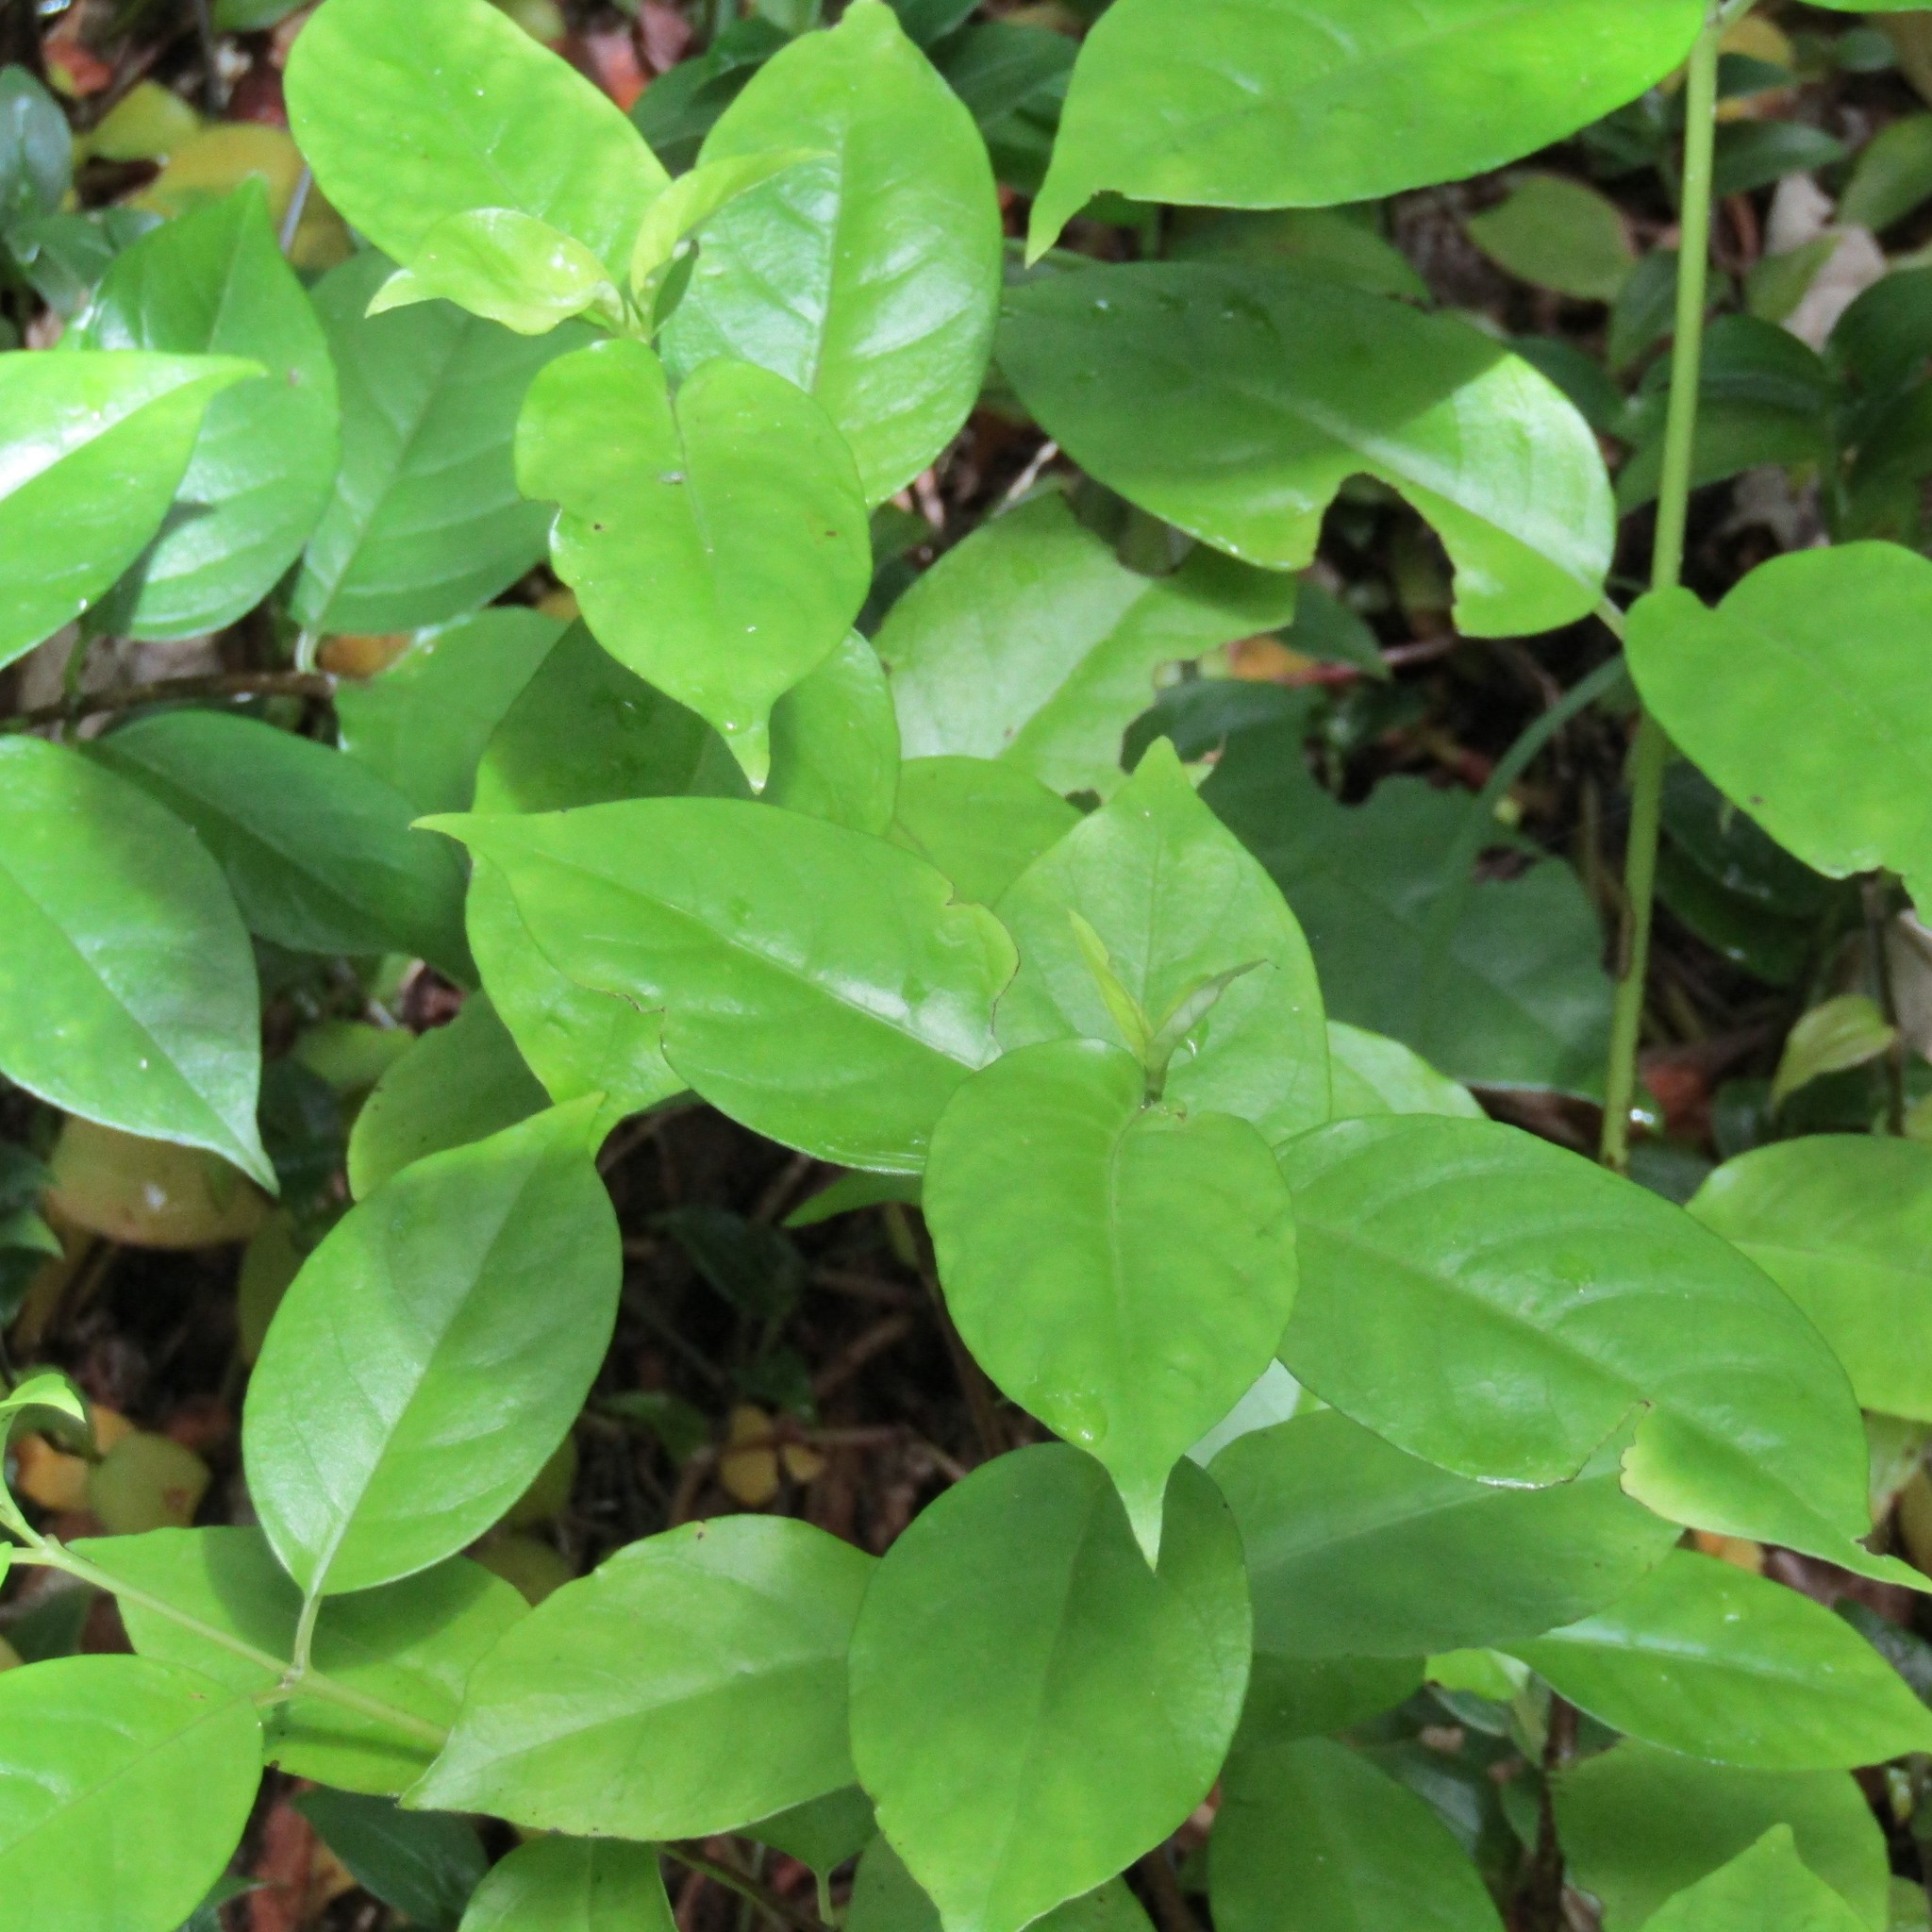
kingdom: Plantae
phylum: Tracheophyta
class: Magnoliopsida
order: Gentianales
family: Loganiaceae
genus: Geniostoma
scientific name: Geniostoma ligustrifolium
